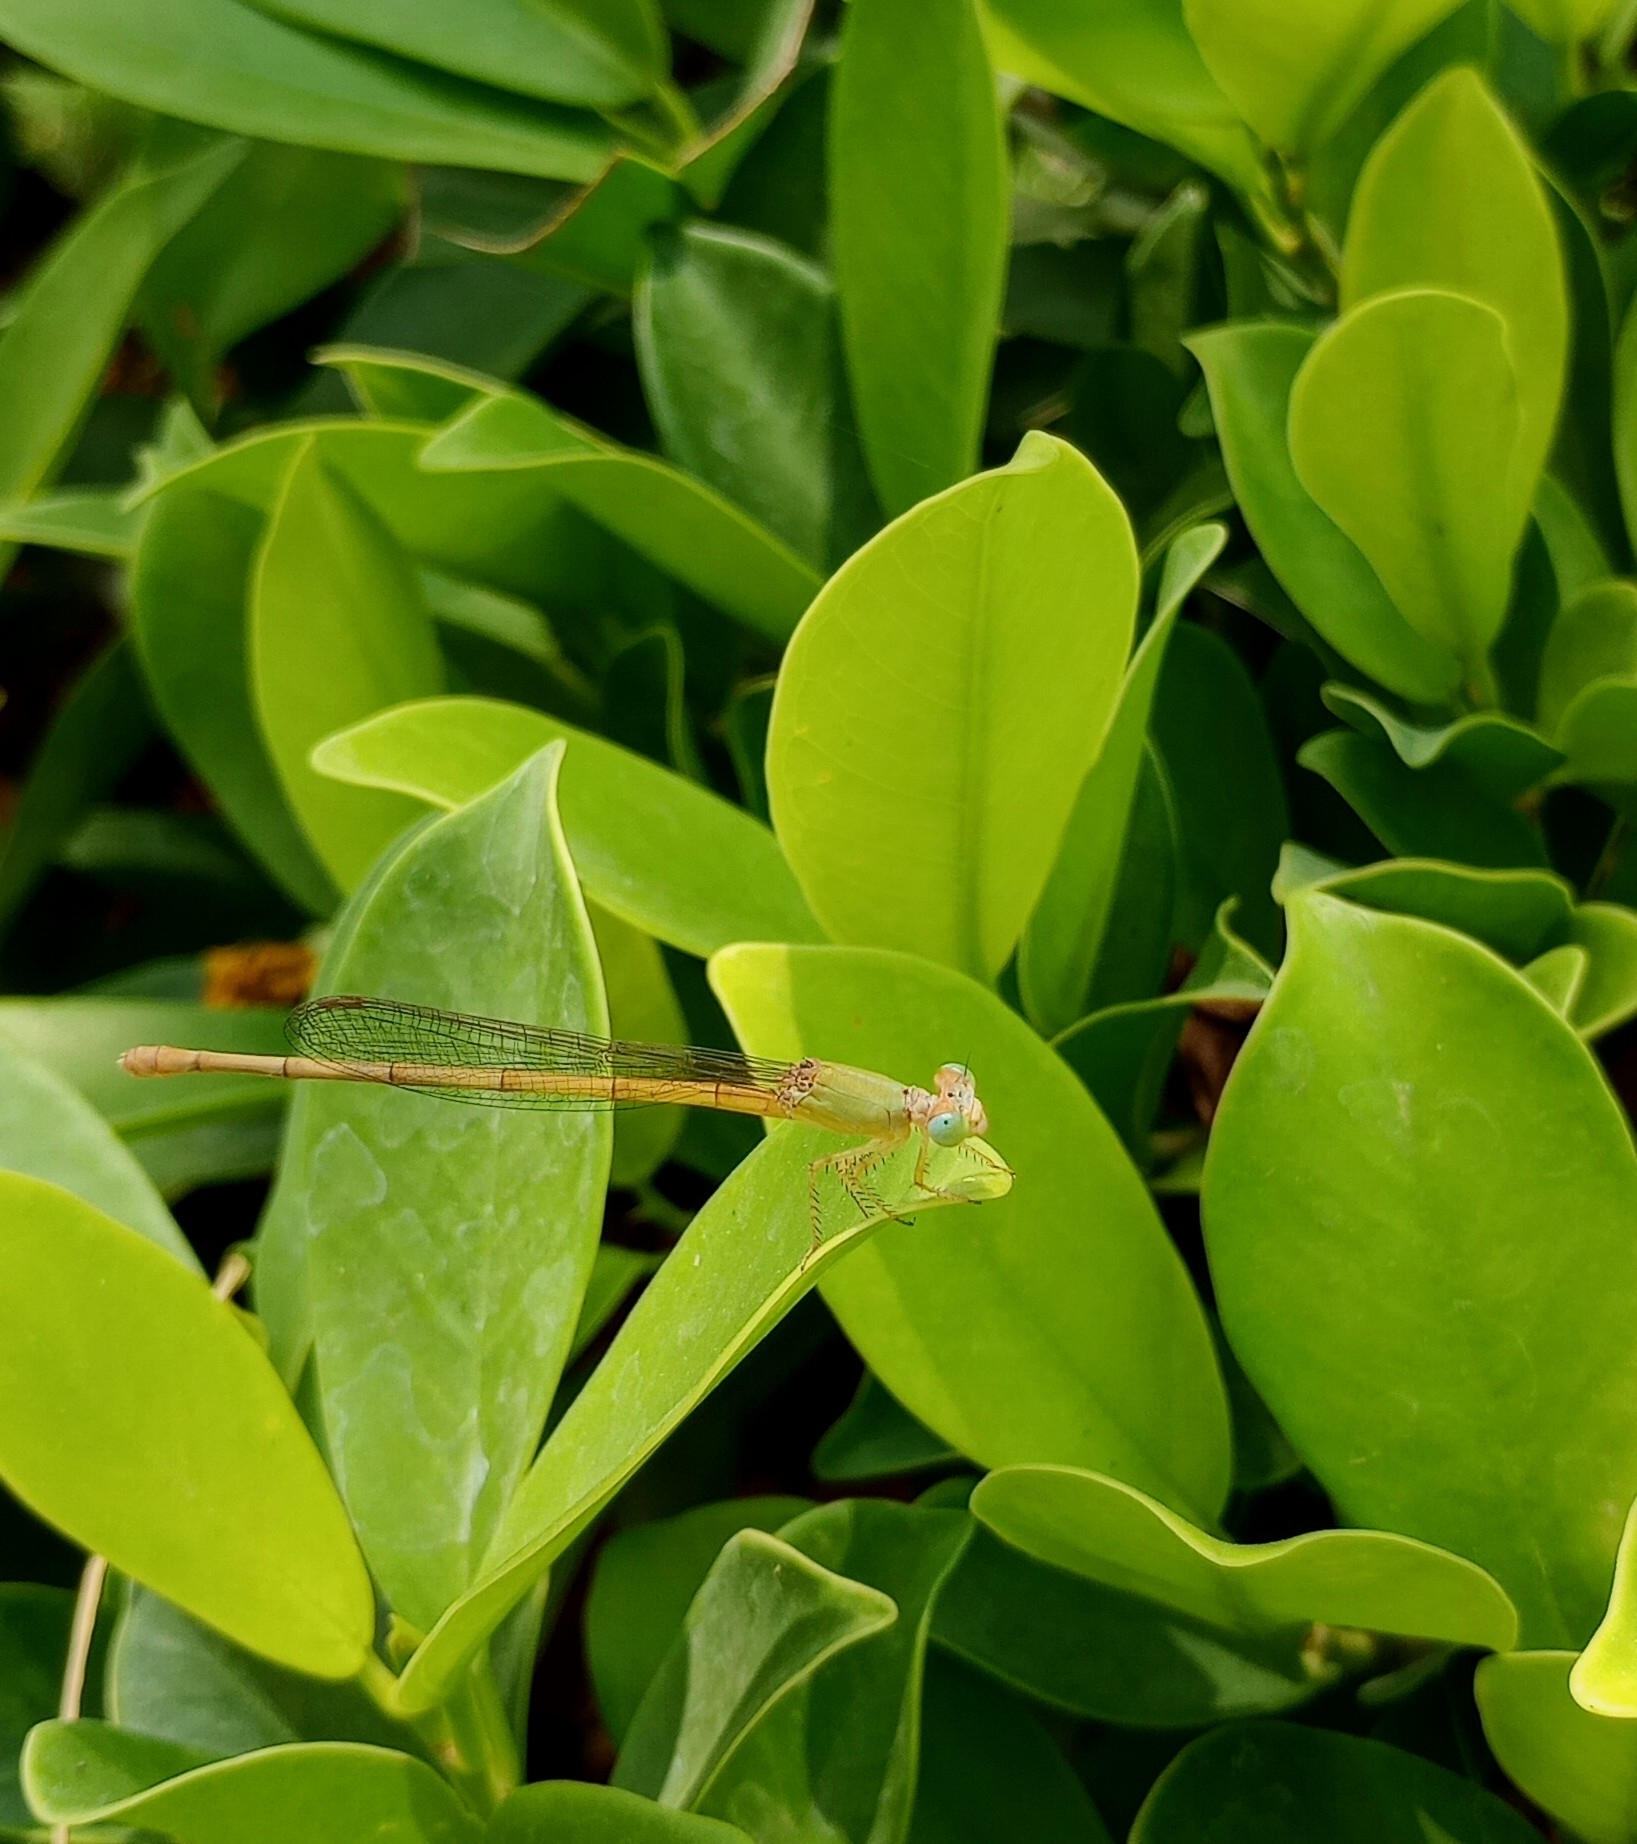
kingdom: Animalia
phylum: Arthropoda
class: Insecta
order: Odonata
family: Coenagrionidae
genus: Ceriagrion
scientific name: Ceriagrion coromandelianum
